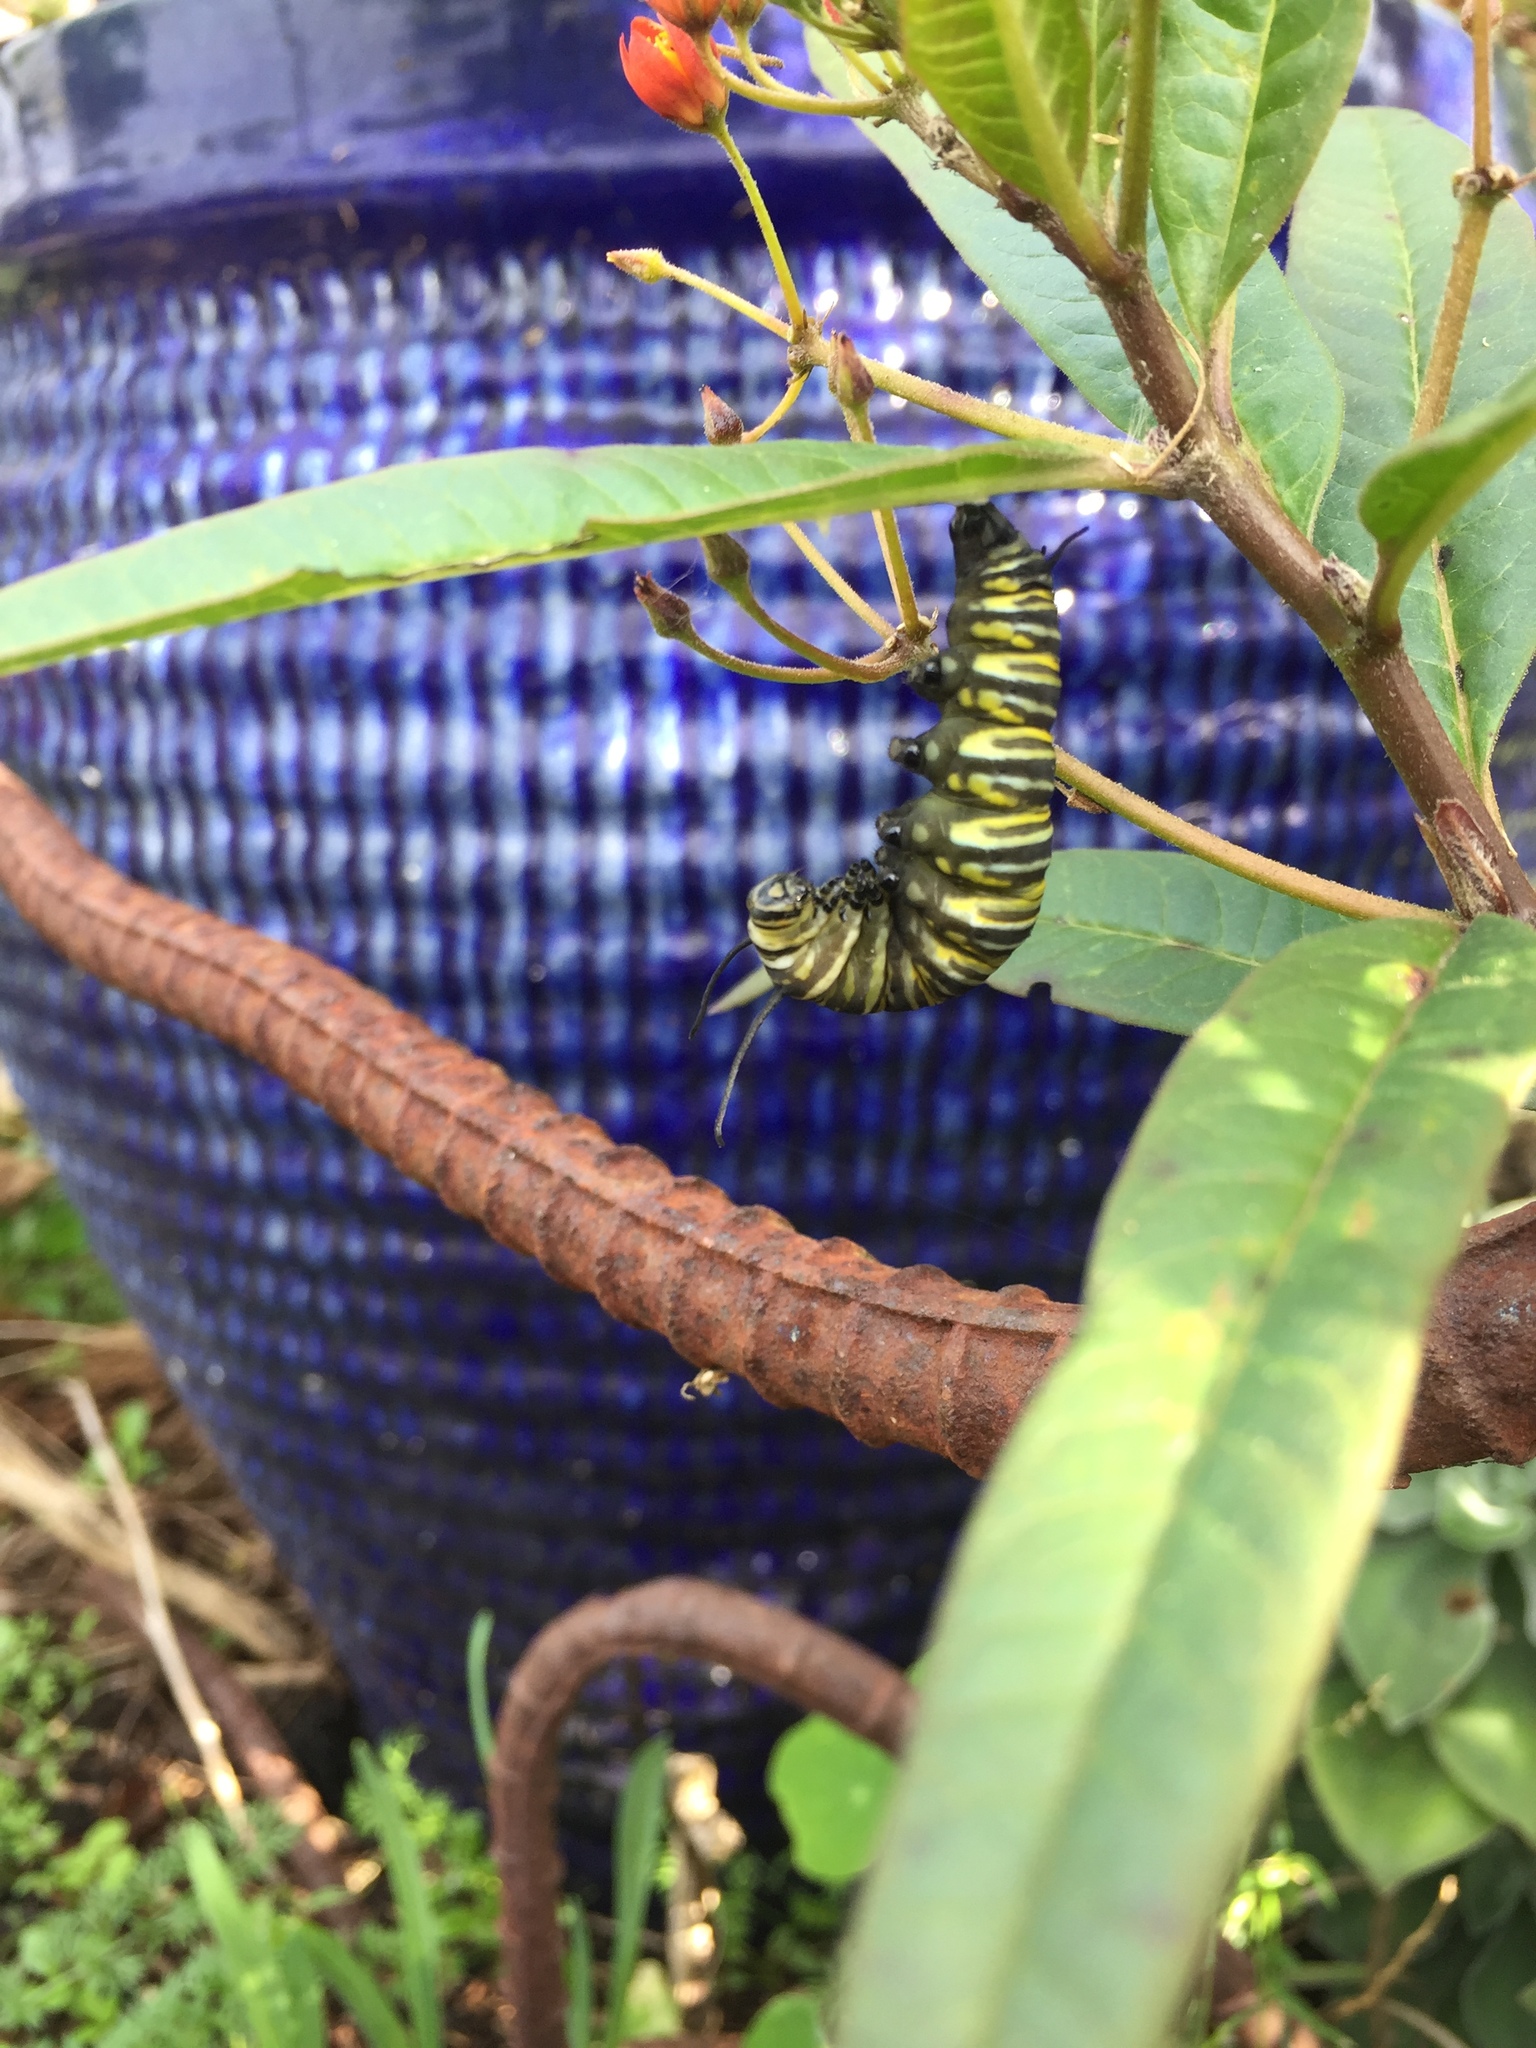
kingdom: Animalia
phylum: Arthropoda
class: Insecta
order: Lepidoptera
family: Nymphalidae
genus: Danaus
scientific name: Danaus plexippus
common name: Monarch
